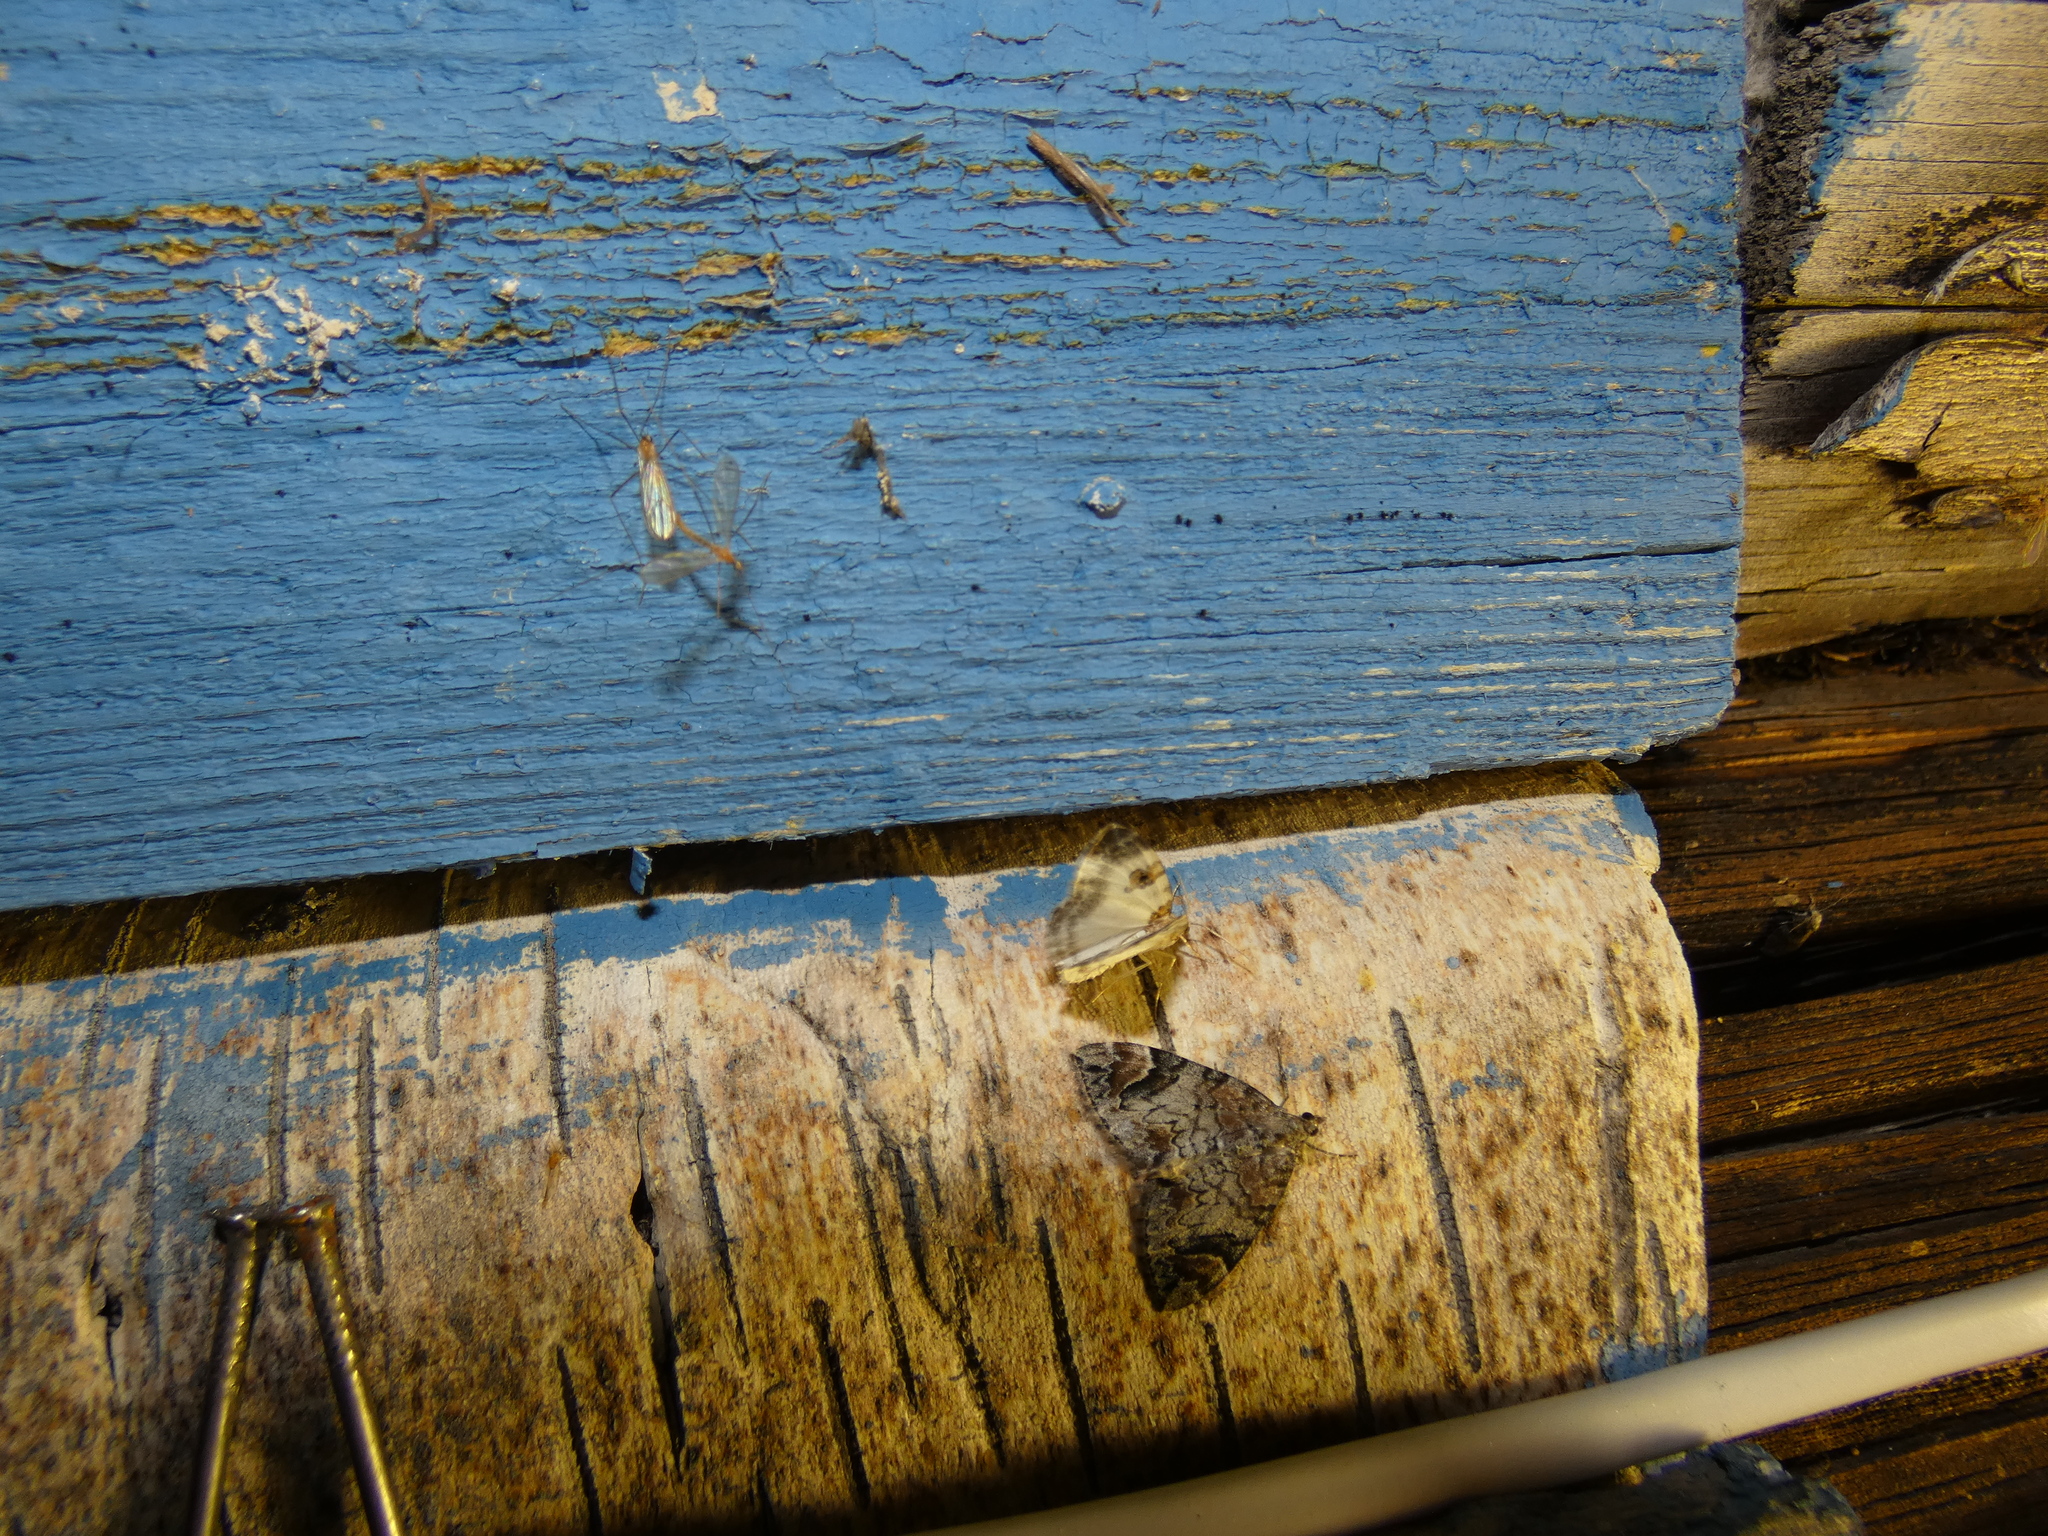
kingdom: Animalia
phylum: Arthropoda
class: Insecta
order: Lepidoptera
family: Geometridae
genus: Dysstroma
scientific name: Dysstroma citrata
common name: Dark marbled carpet
